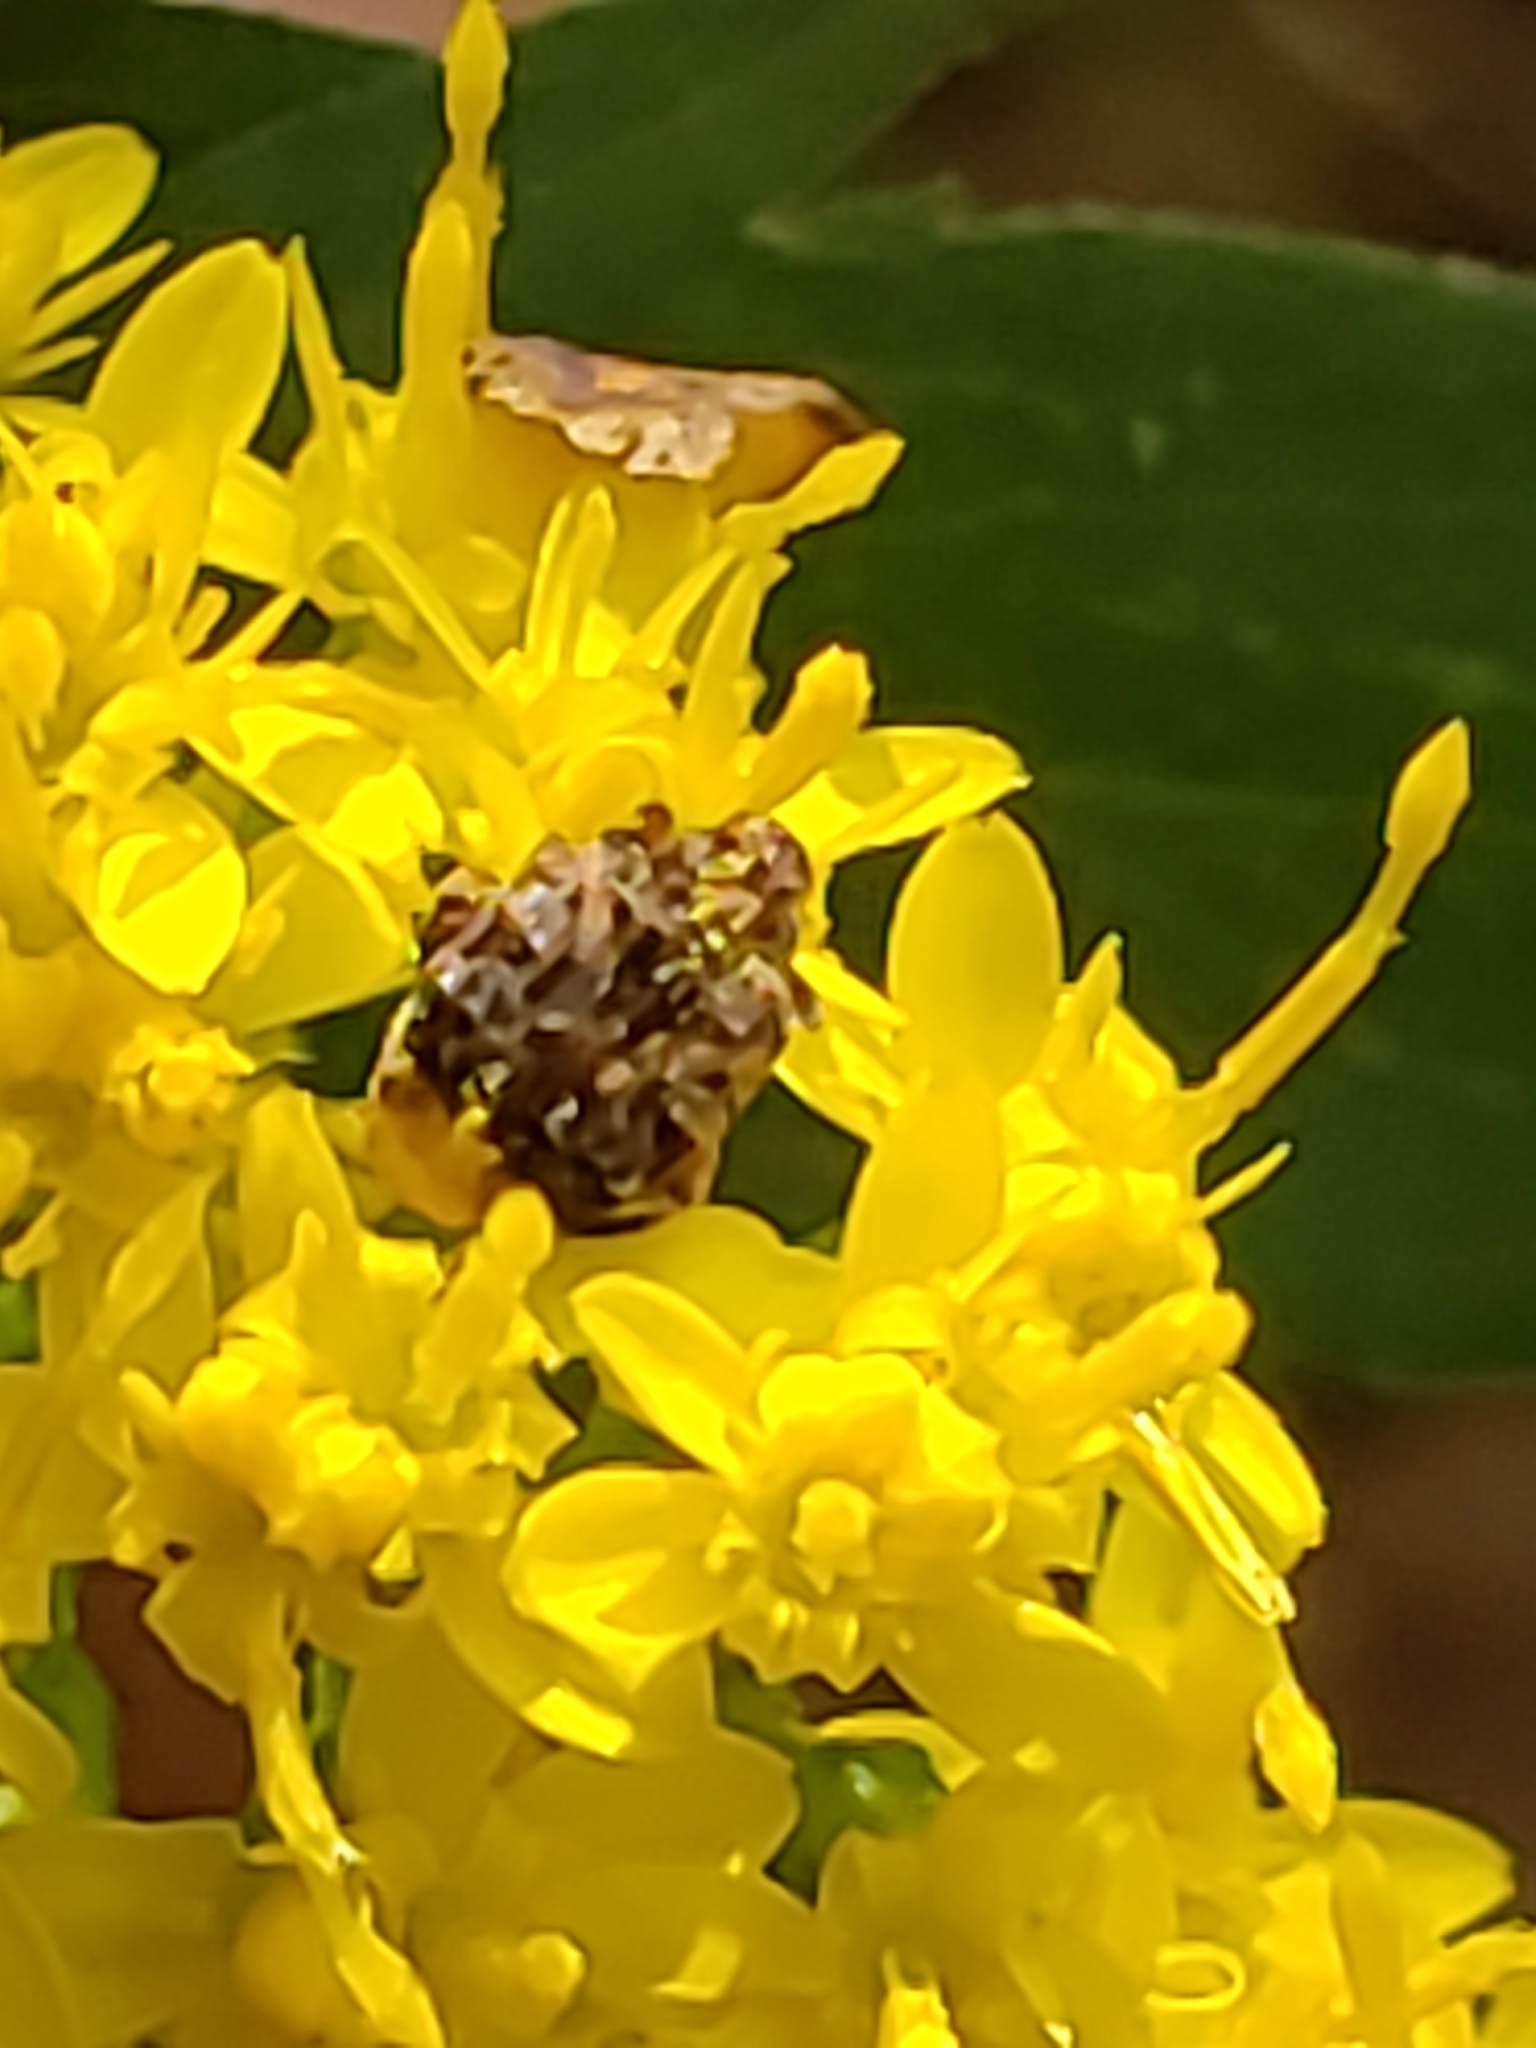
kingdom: Animalia
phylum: Arthropoda
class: Insecta
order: Coleoptera
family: Chrysomelidae
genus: Gibbobruchus
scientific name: Gibbobruchus mimus
